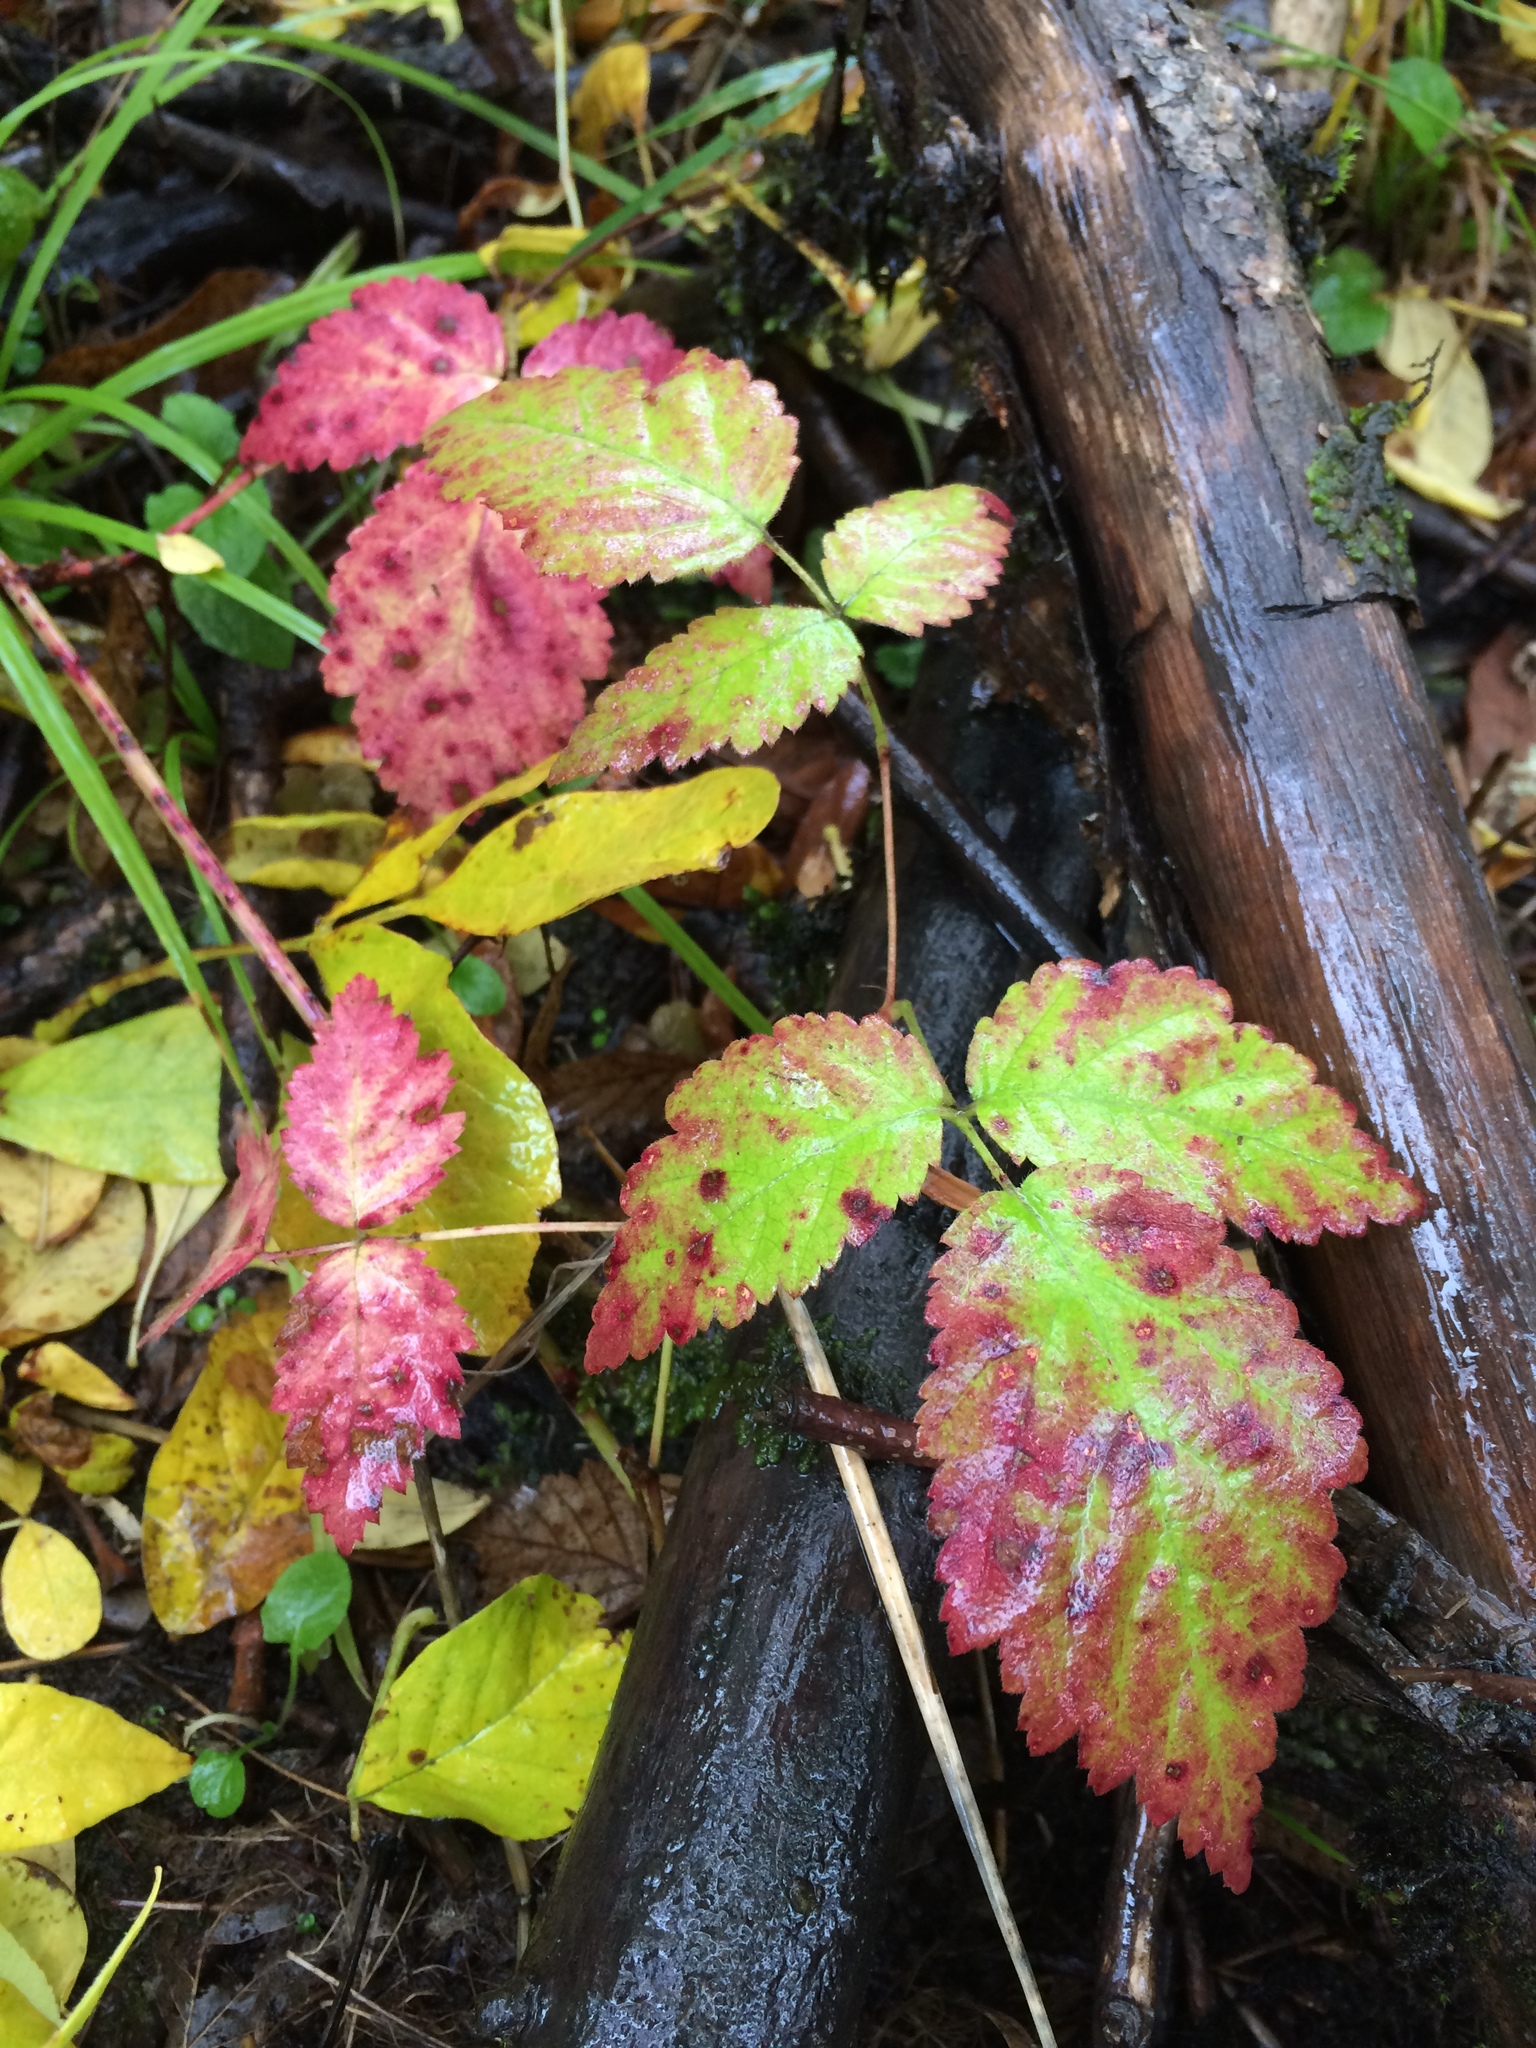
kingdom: Plantae
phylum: Tracheophyta
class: Magnoliopsida
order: Rosales
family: Rosaceae
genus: Rubus
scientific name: Rubus ursinus
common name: Pacific blackberry
